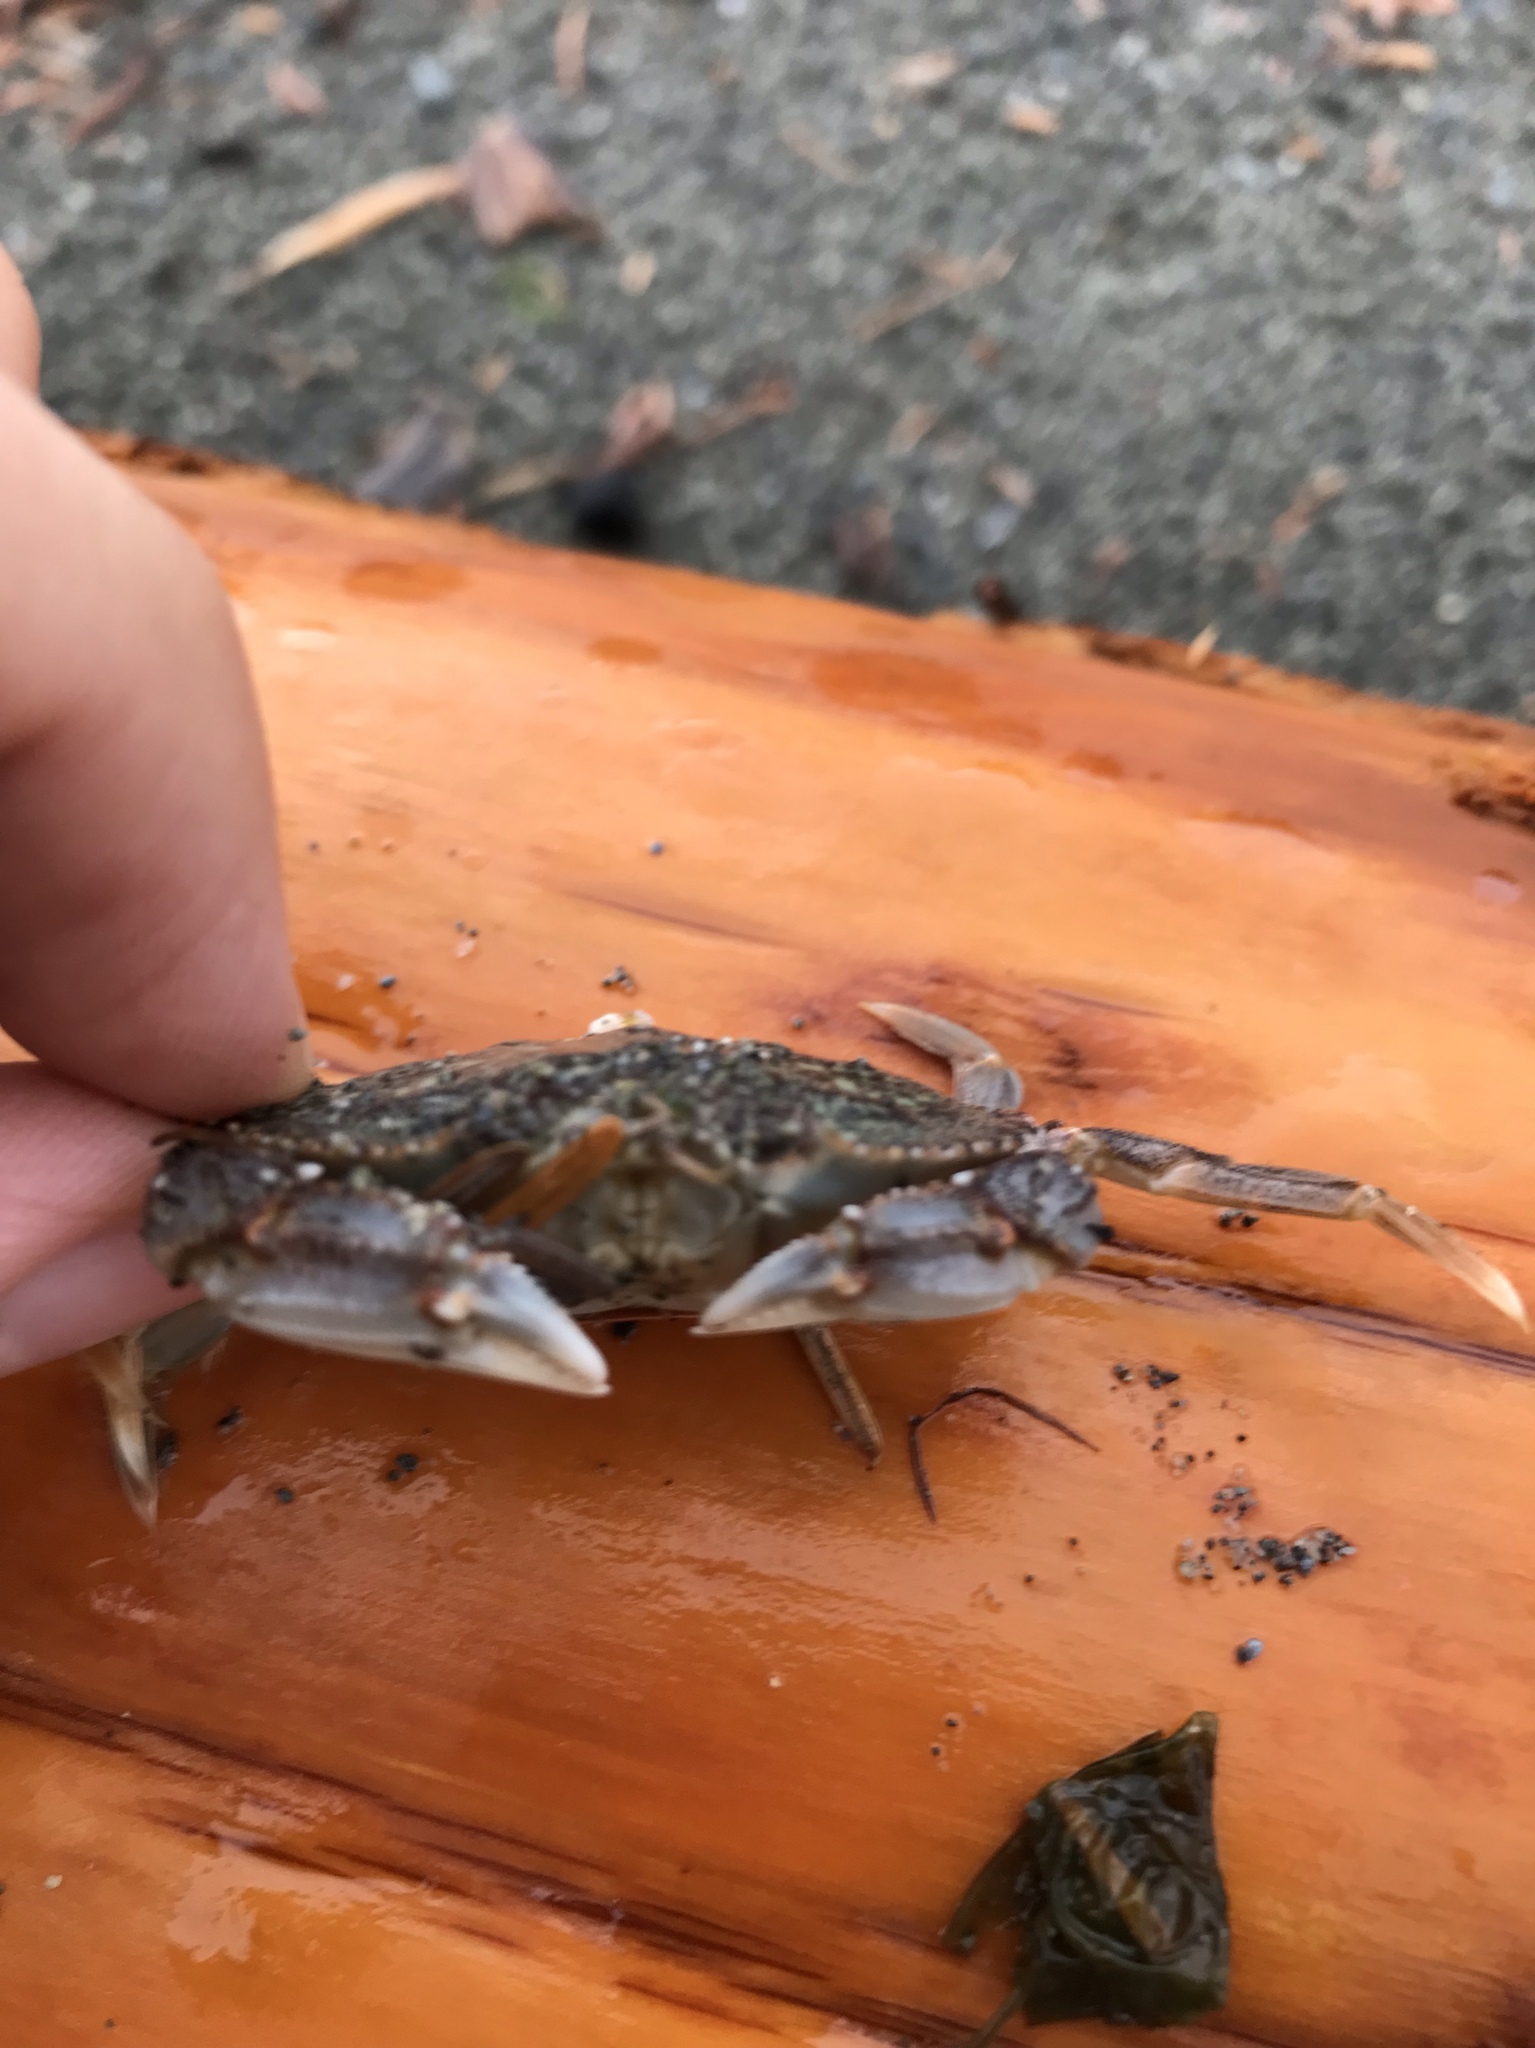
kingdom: Animalia
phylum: Arthropoda
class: Malacostraca
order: Decapoda
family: Cancridae
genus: Metacarcinus
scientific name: Metacarcinus magister
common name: Californian crab
